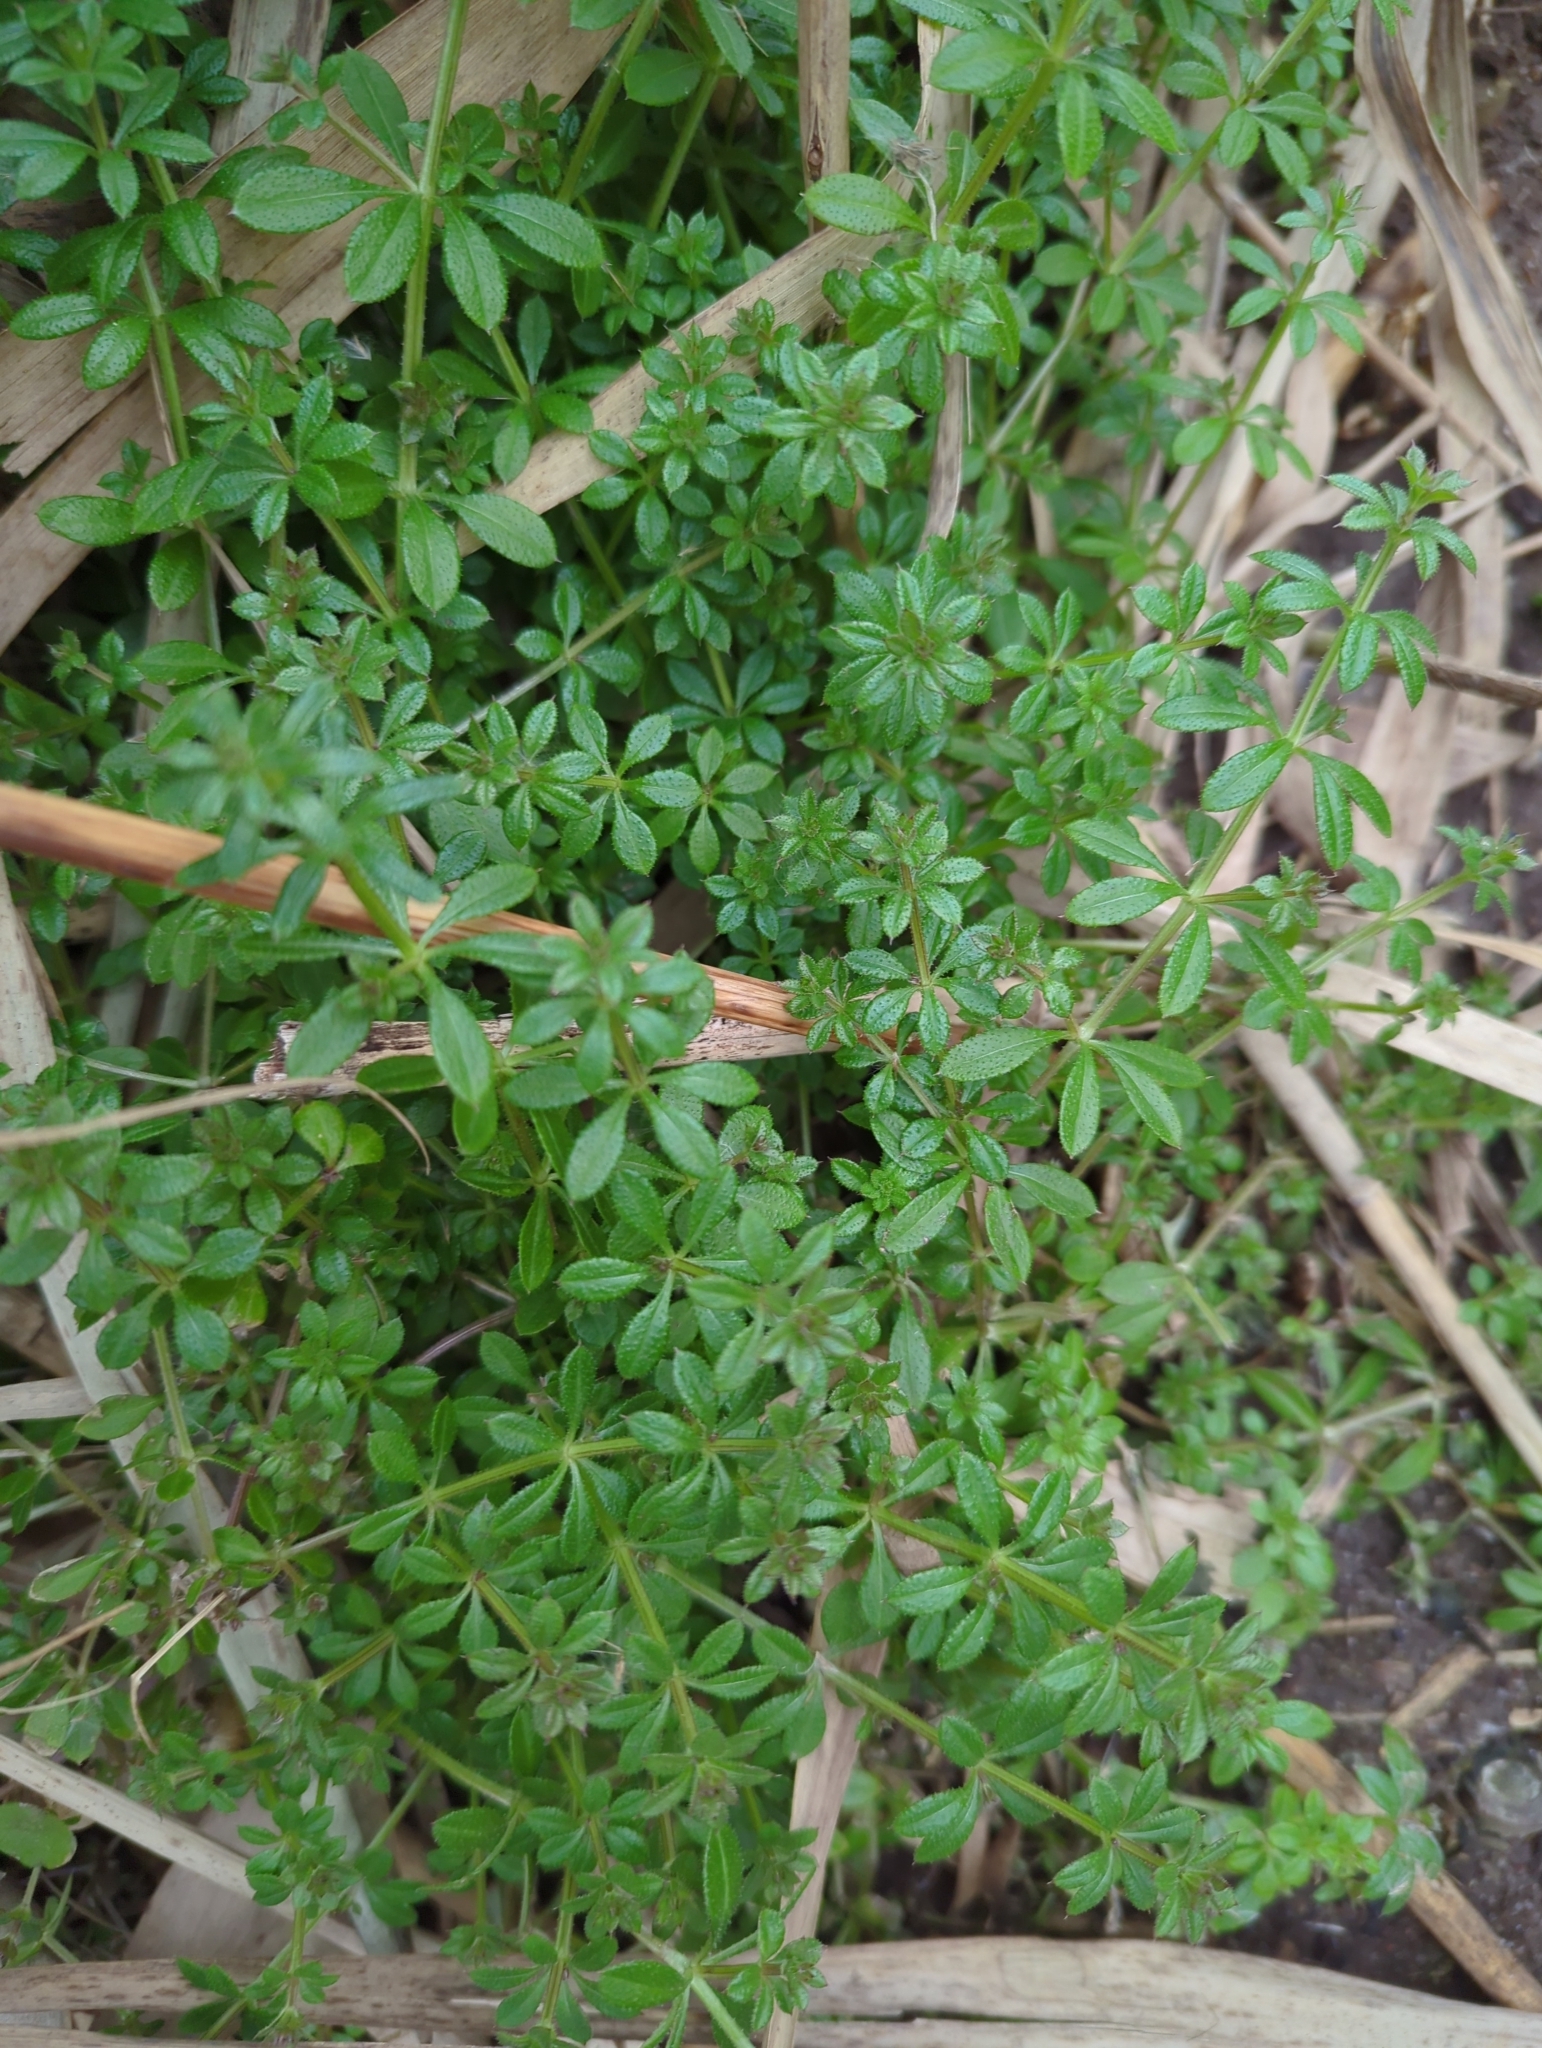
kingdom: Plantae
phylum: Tracheophyta
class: Magnoliopsida
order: Gentianales
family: Rubiaceae
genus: Galium
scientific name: Galium aparine
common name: Cleavers
